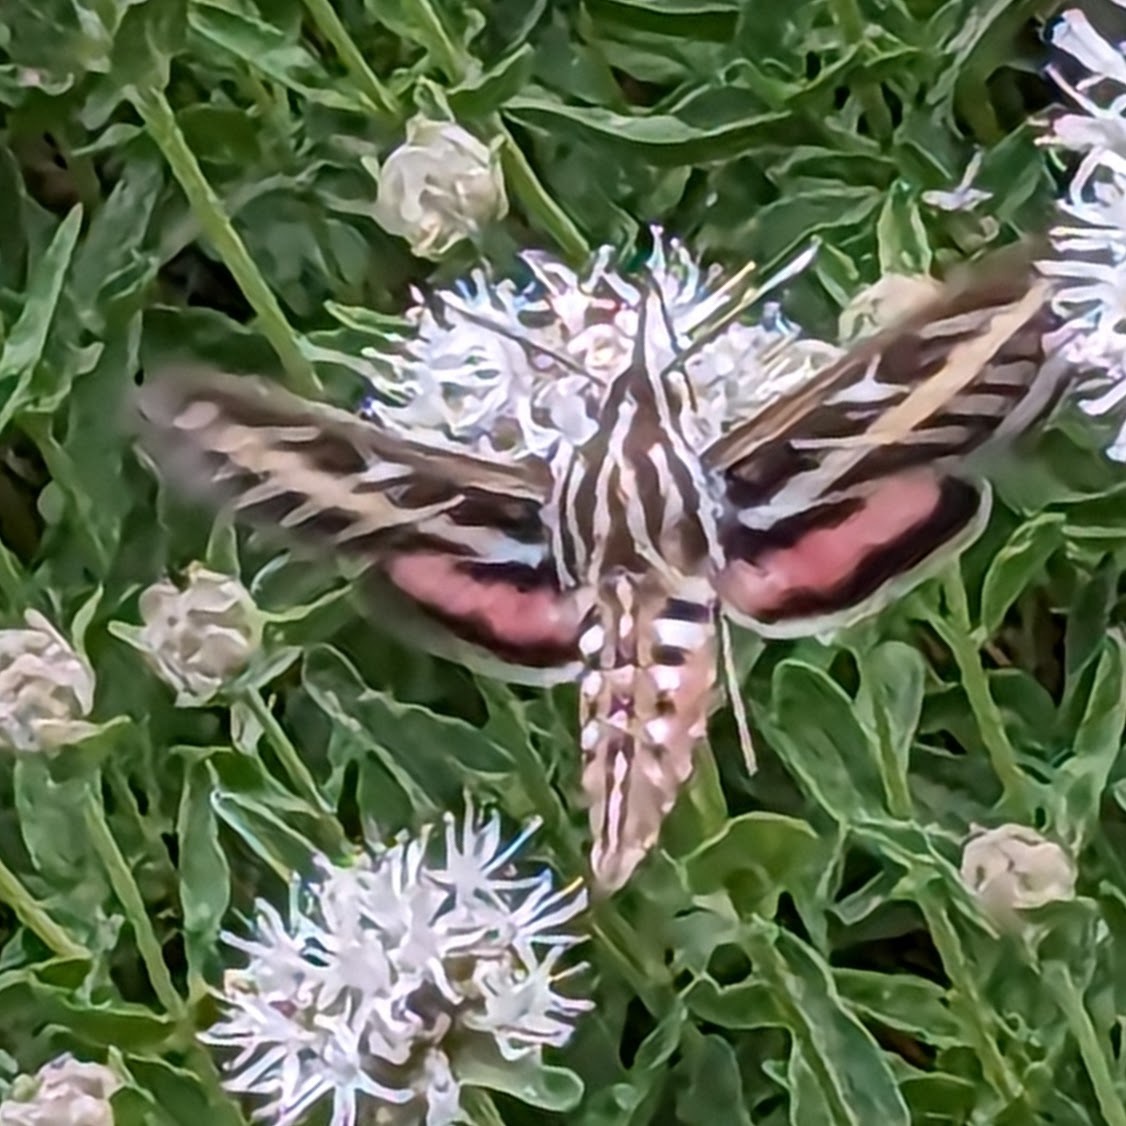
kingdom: Animalia
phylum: Arthropoda
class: Insecta
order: Lepidoptera
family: Sphingidae
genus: Hyles
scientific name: Hyles lineata
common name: White-lined sphinx
